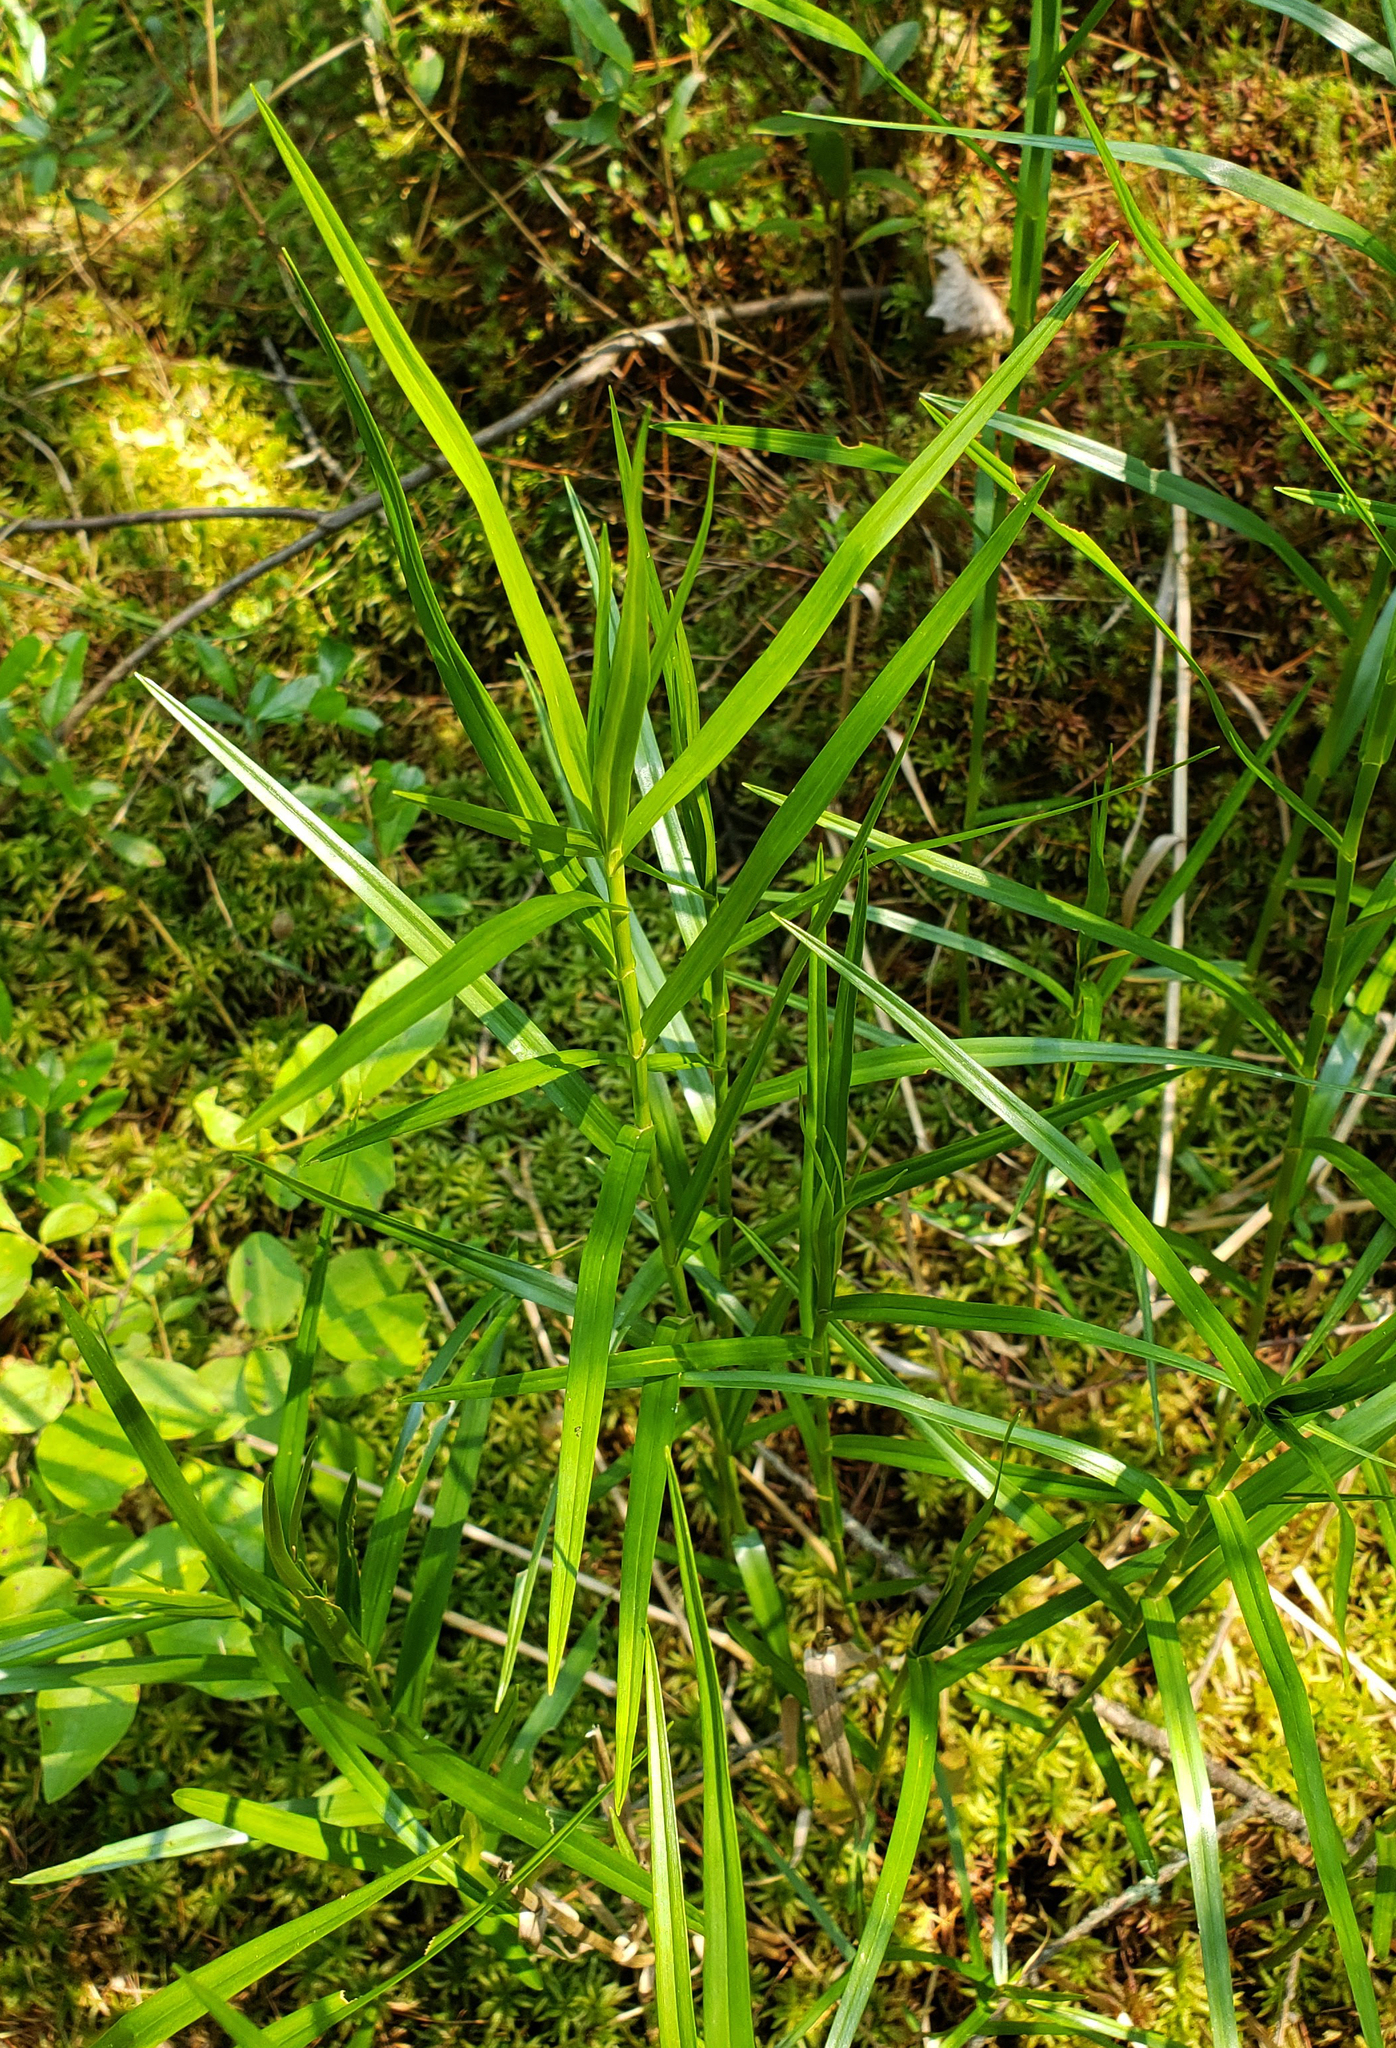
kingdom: Plantae
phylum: Tracheophyta
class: Liliopsida
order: Poales
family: Cyperaceae
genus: Dulichium
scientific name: Dulichium arundinaceum
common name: Three-way sedge
